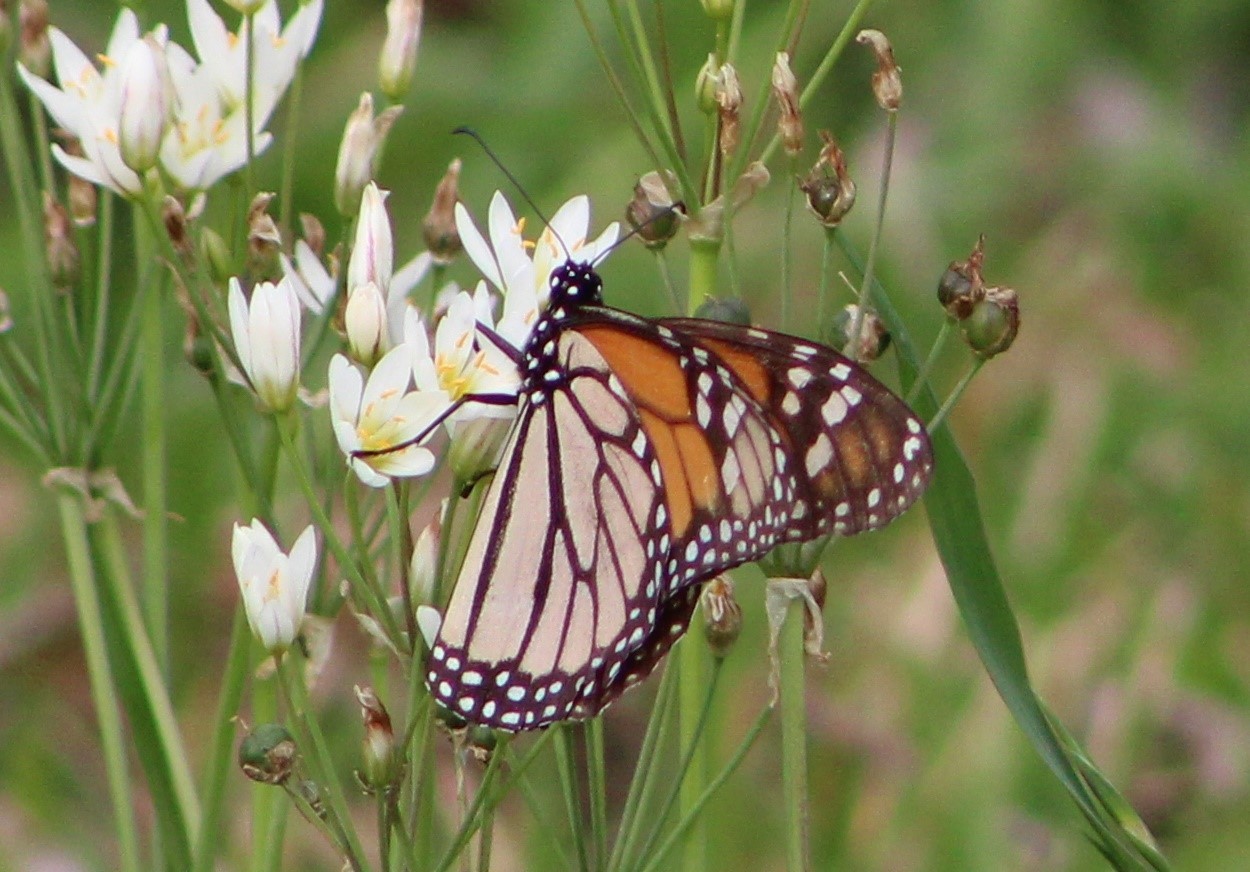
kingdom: Animalia
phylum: Arthropoda
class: Insecta
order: Lepidoptera
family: Nymphalidae
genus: Danaus
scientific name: Danaus plexippus
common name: Monarch
